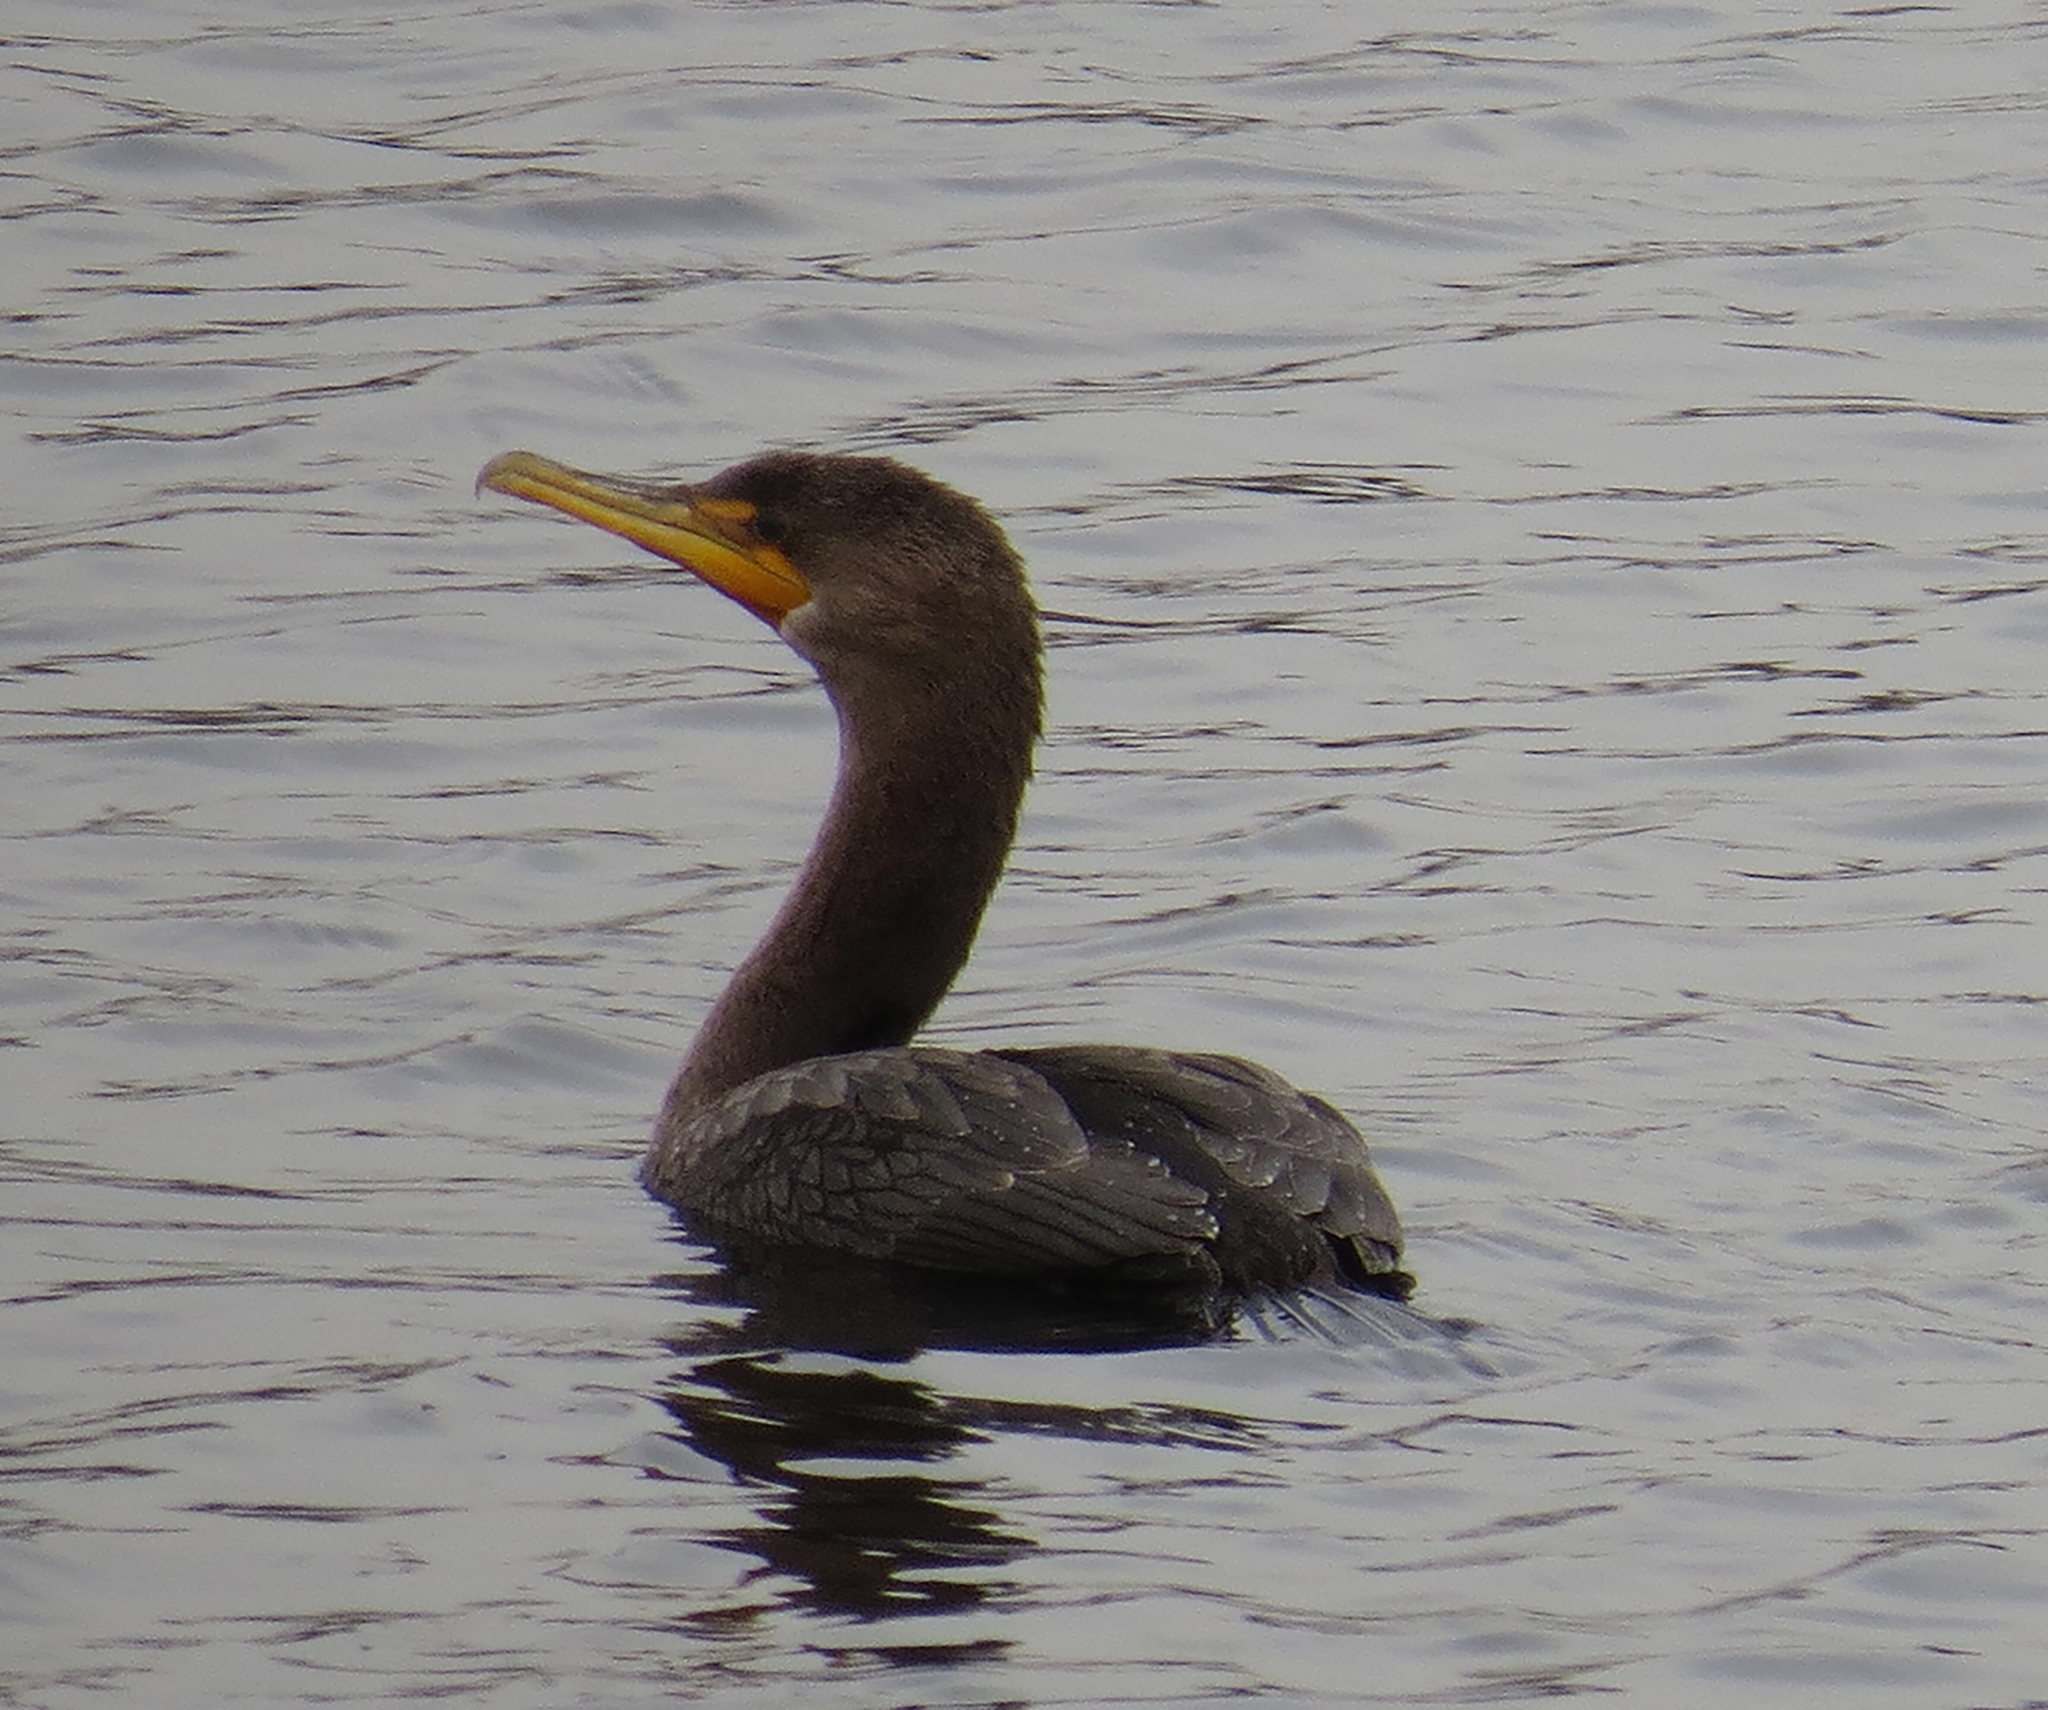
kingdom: Animalia
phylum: Chordata
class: Aves
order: Suliformes
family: Phalacrocoracidae
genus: Phalacrocorax
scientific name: Phalacrocorax auritus
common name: Double-crested cormorant
